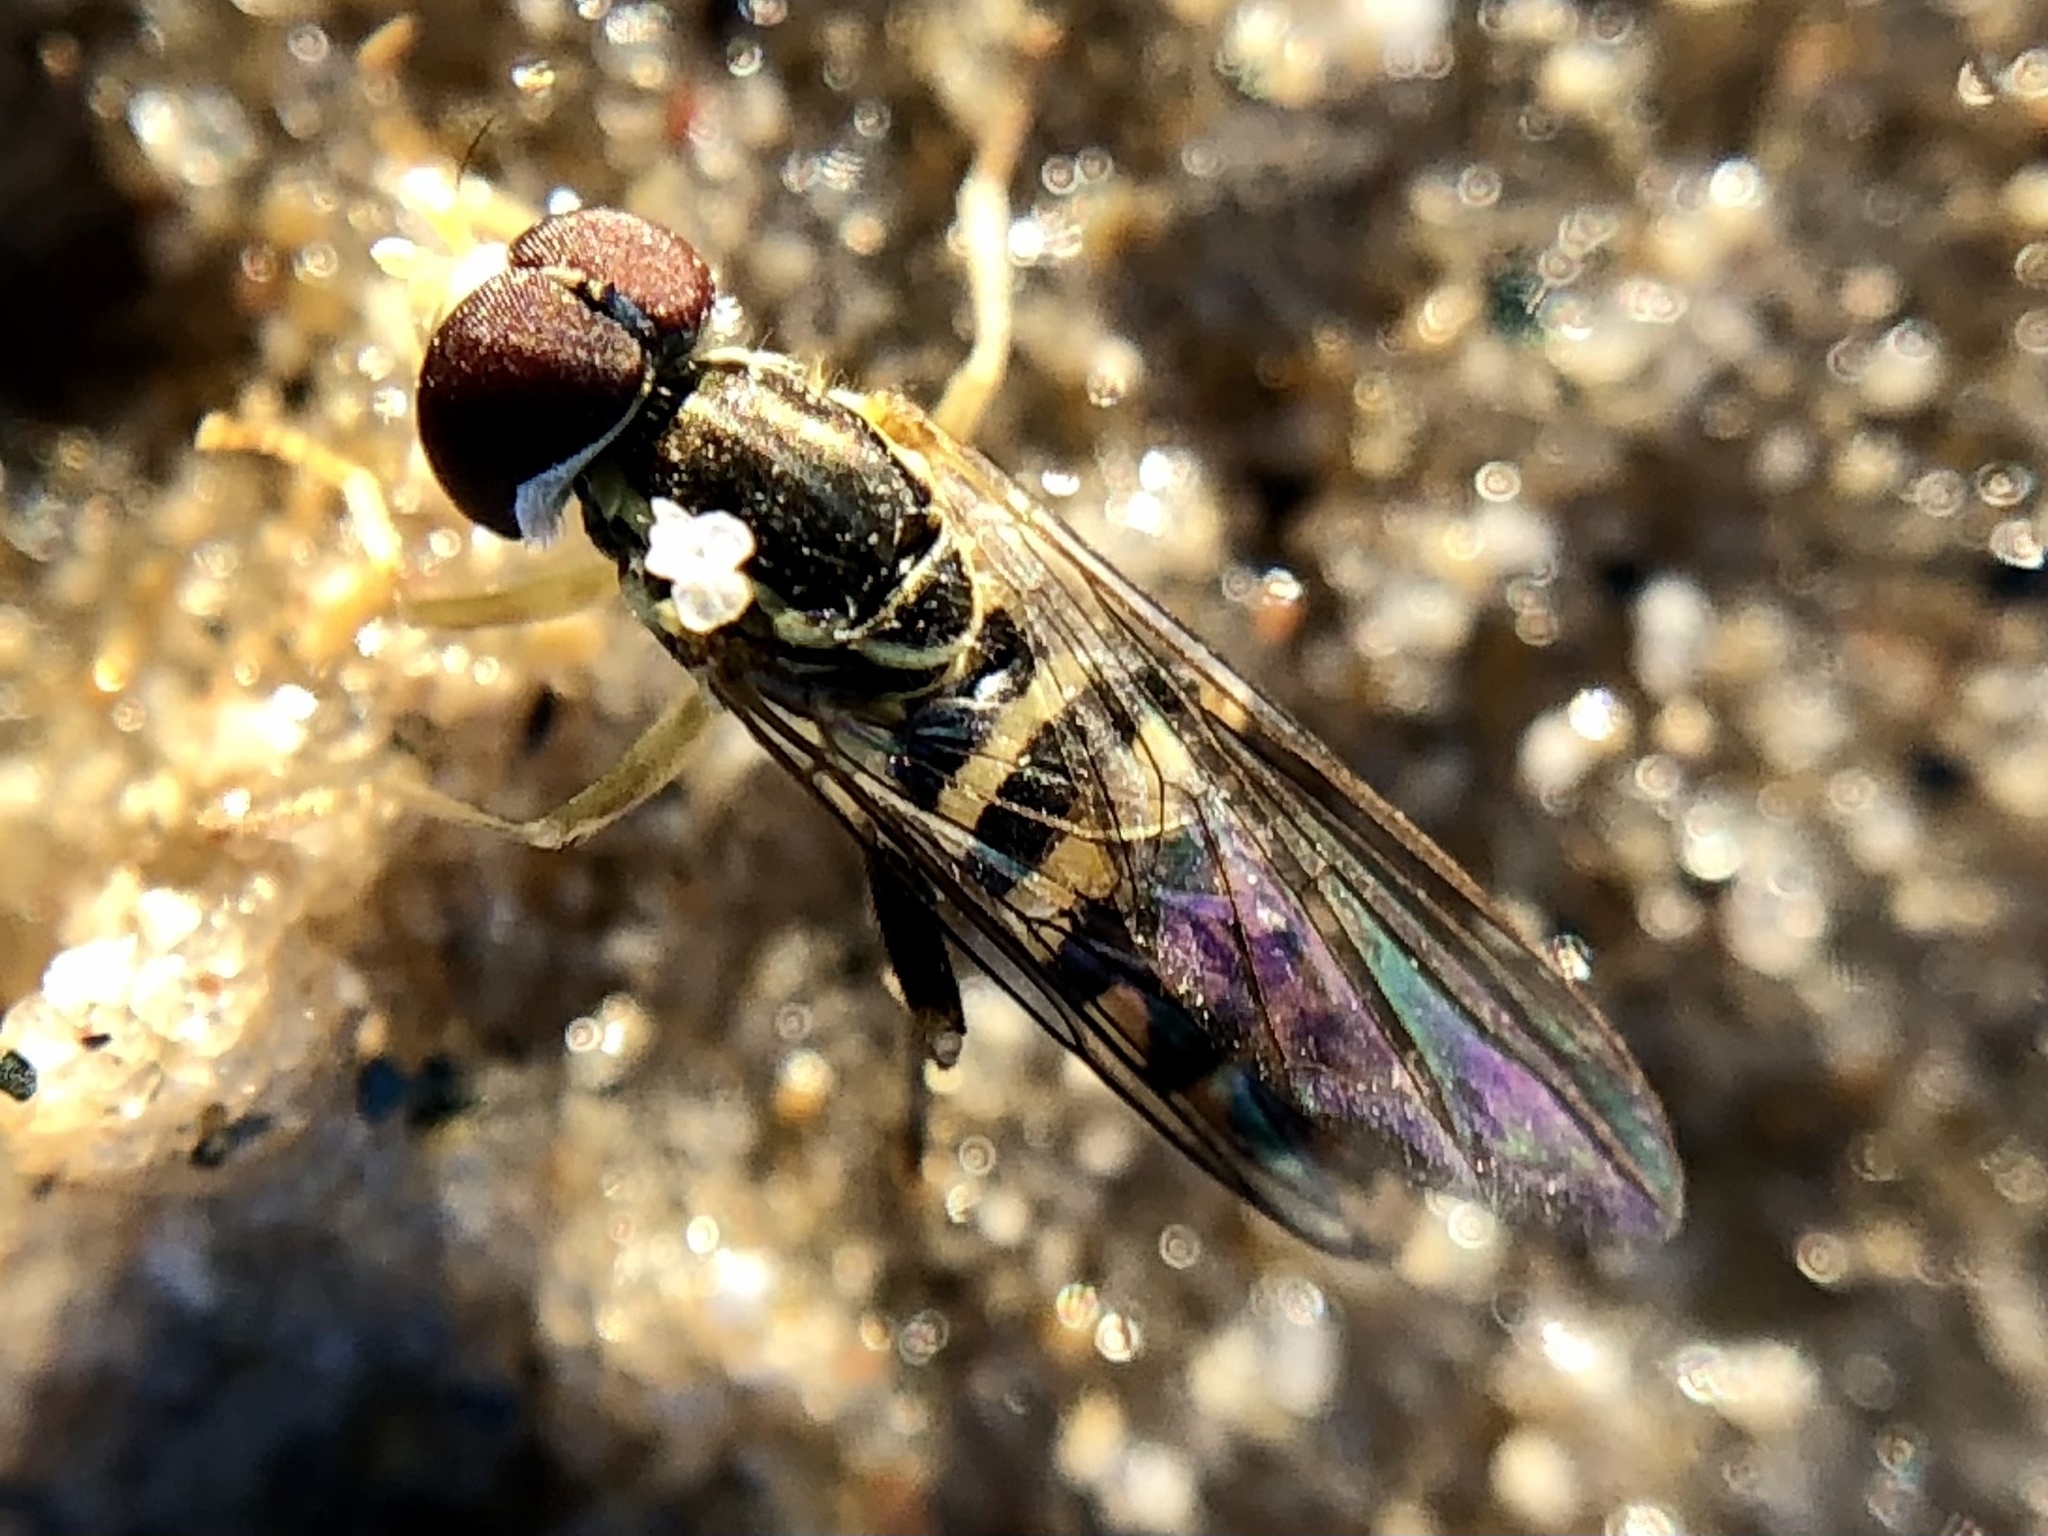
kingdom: Animalia
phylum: Arthropoda
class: Insecta
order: Diptera
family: Syrphidae
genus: Toxomerus
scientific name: Toxomerus geminatus
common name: Eastern calligrapher
